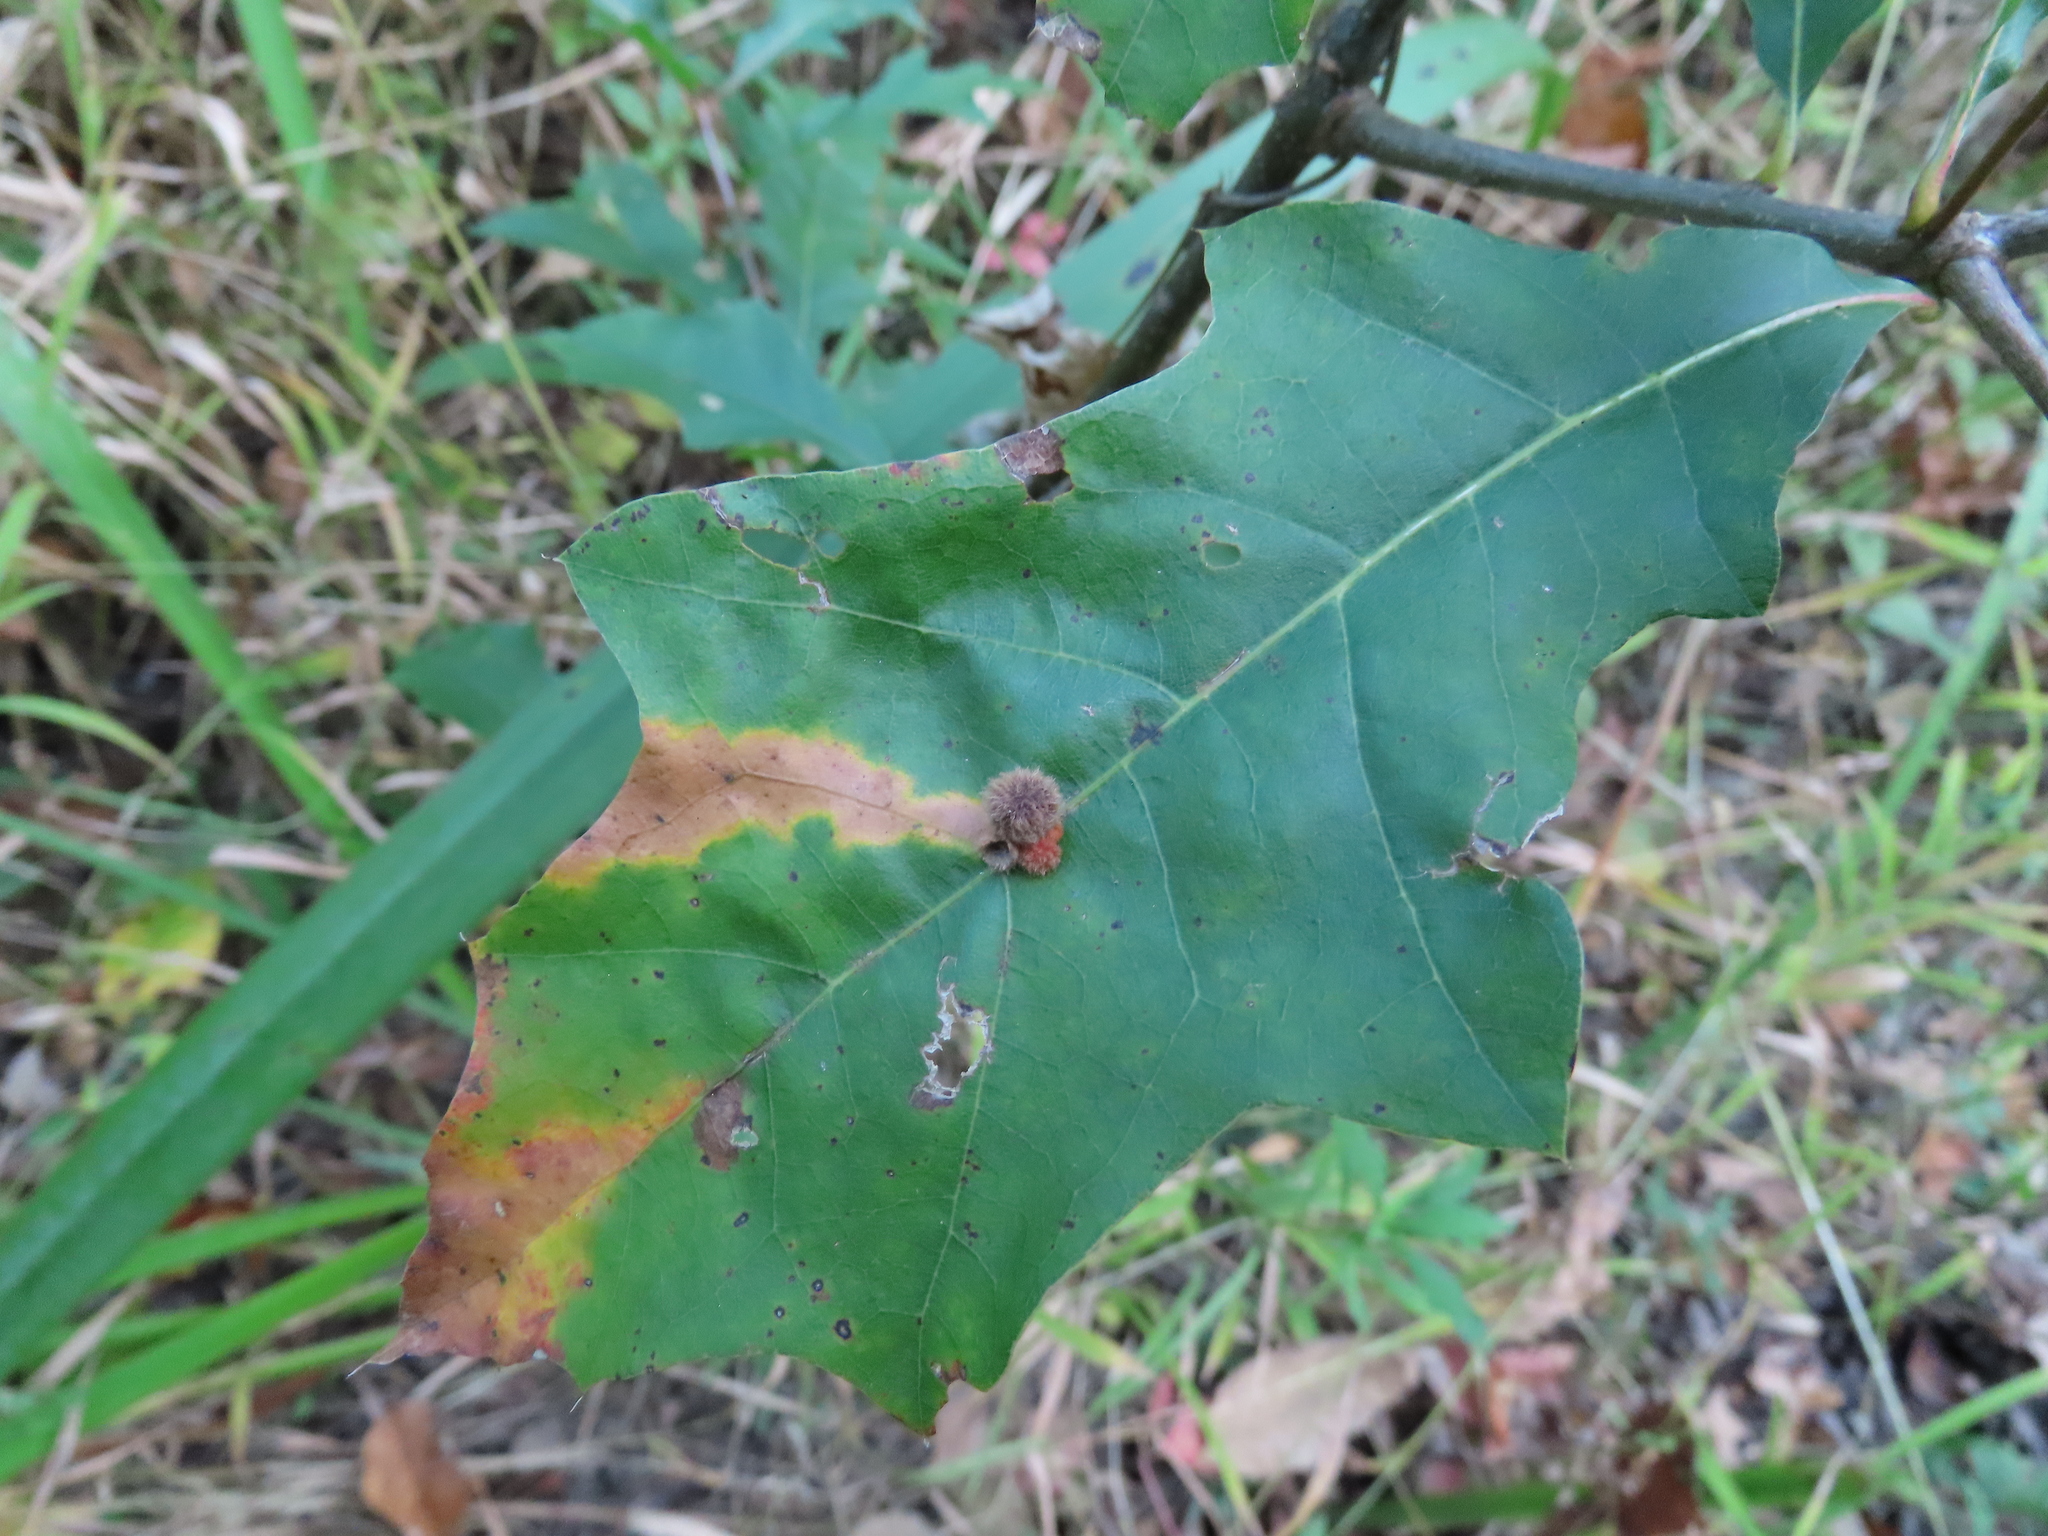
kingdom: Animalia
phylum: Arthropoda
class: Insecta
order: Hymenoptera
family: Cynipidae
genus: Callirhytis
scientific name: Callirhytis
